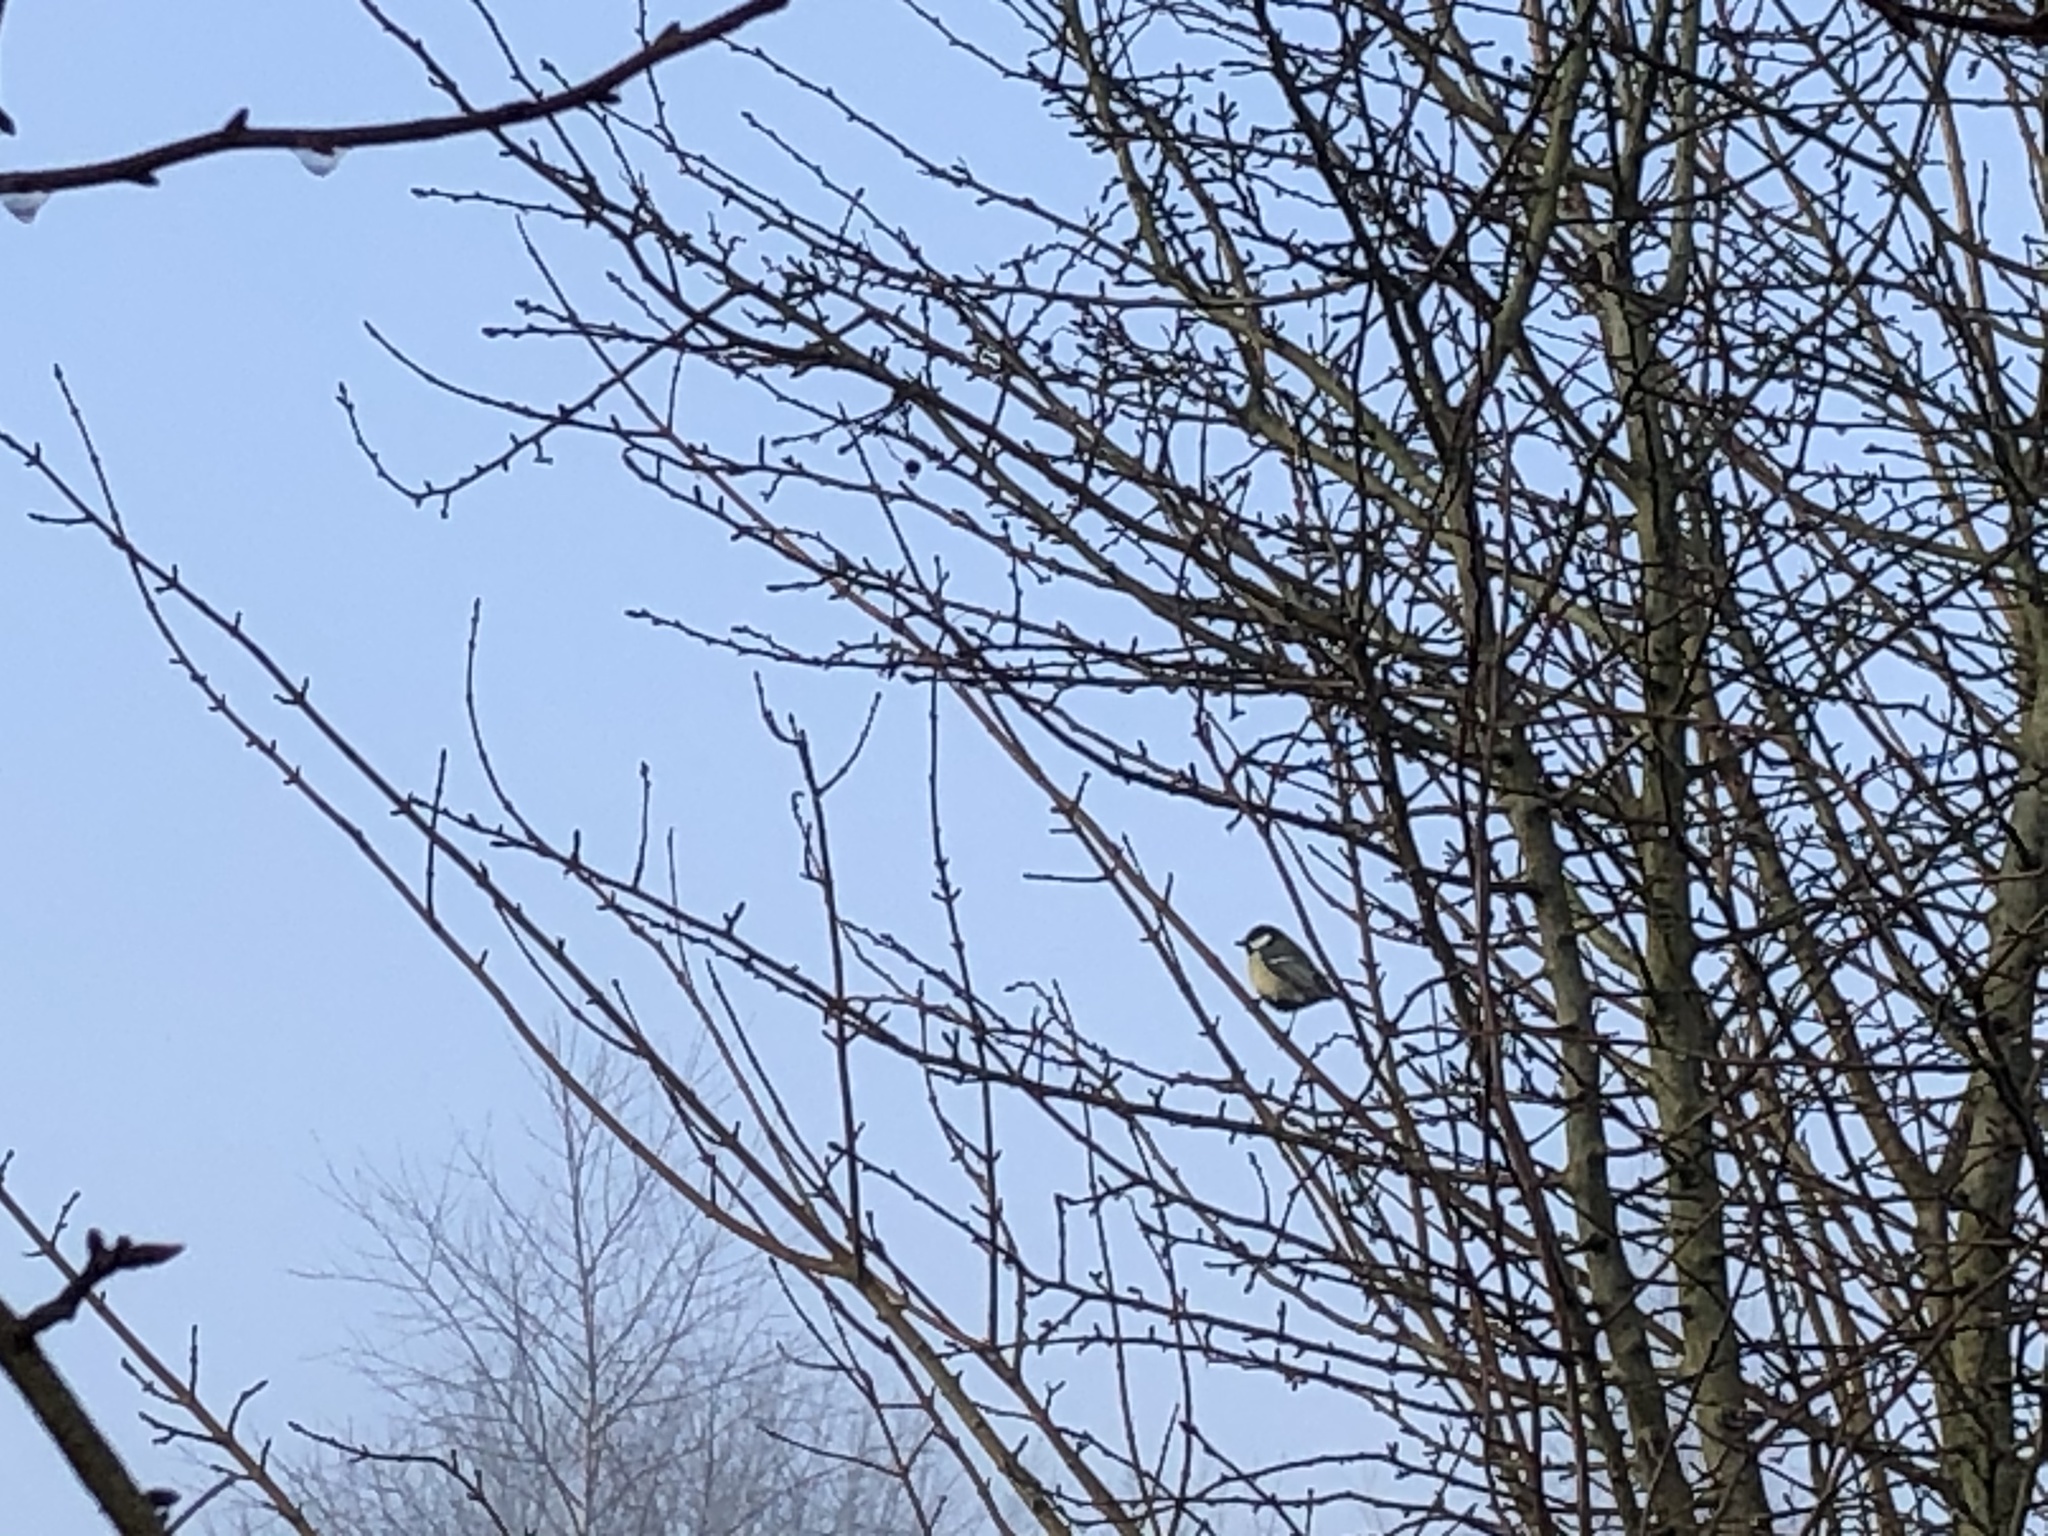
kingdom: Animalia
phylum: Chordata
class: Aves
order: Passeriformes
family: Paridae
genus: Parus
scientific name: Parus major
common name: Great tit
